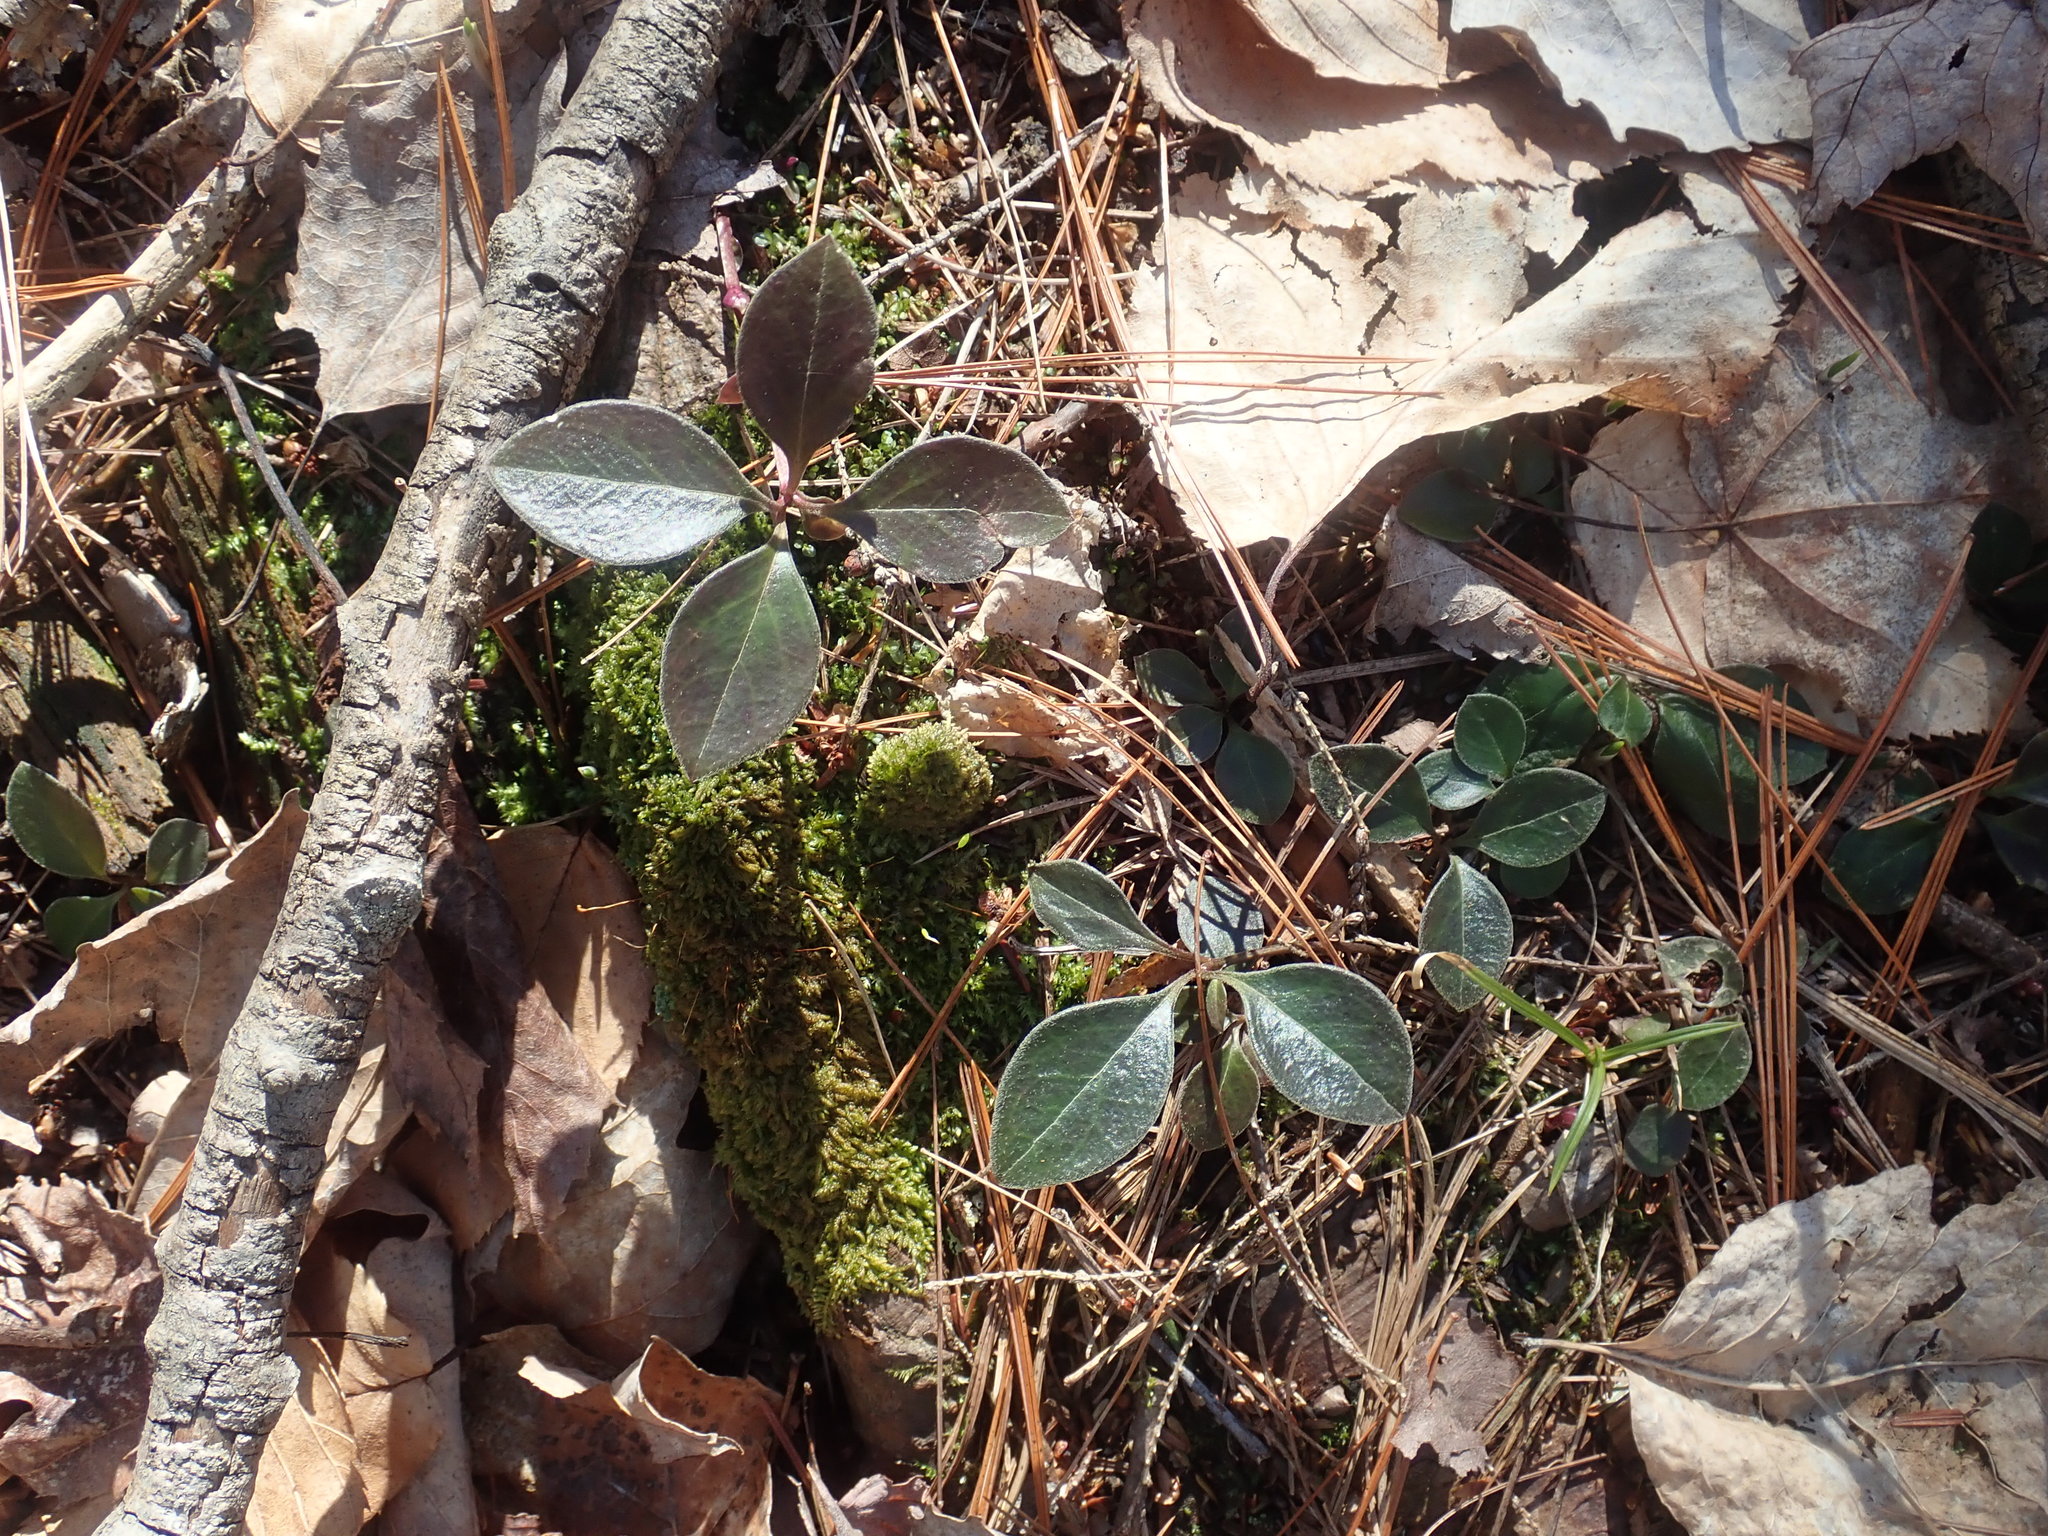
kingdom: Plantae
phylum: Tracheophyta
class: Magnoliopsida
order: Fabales
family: Polygalaceae
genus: Polygaloides
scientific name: Polygaloides paucifolia
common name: Bird-on-the-wing
